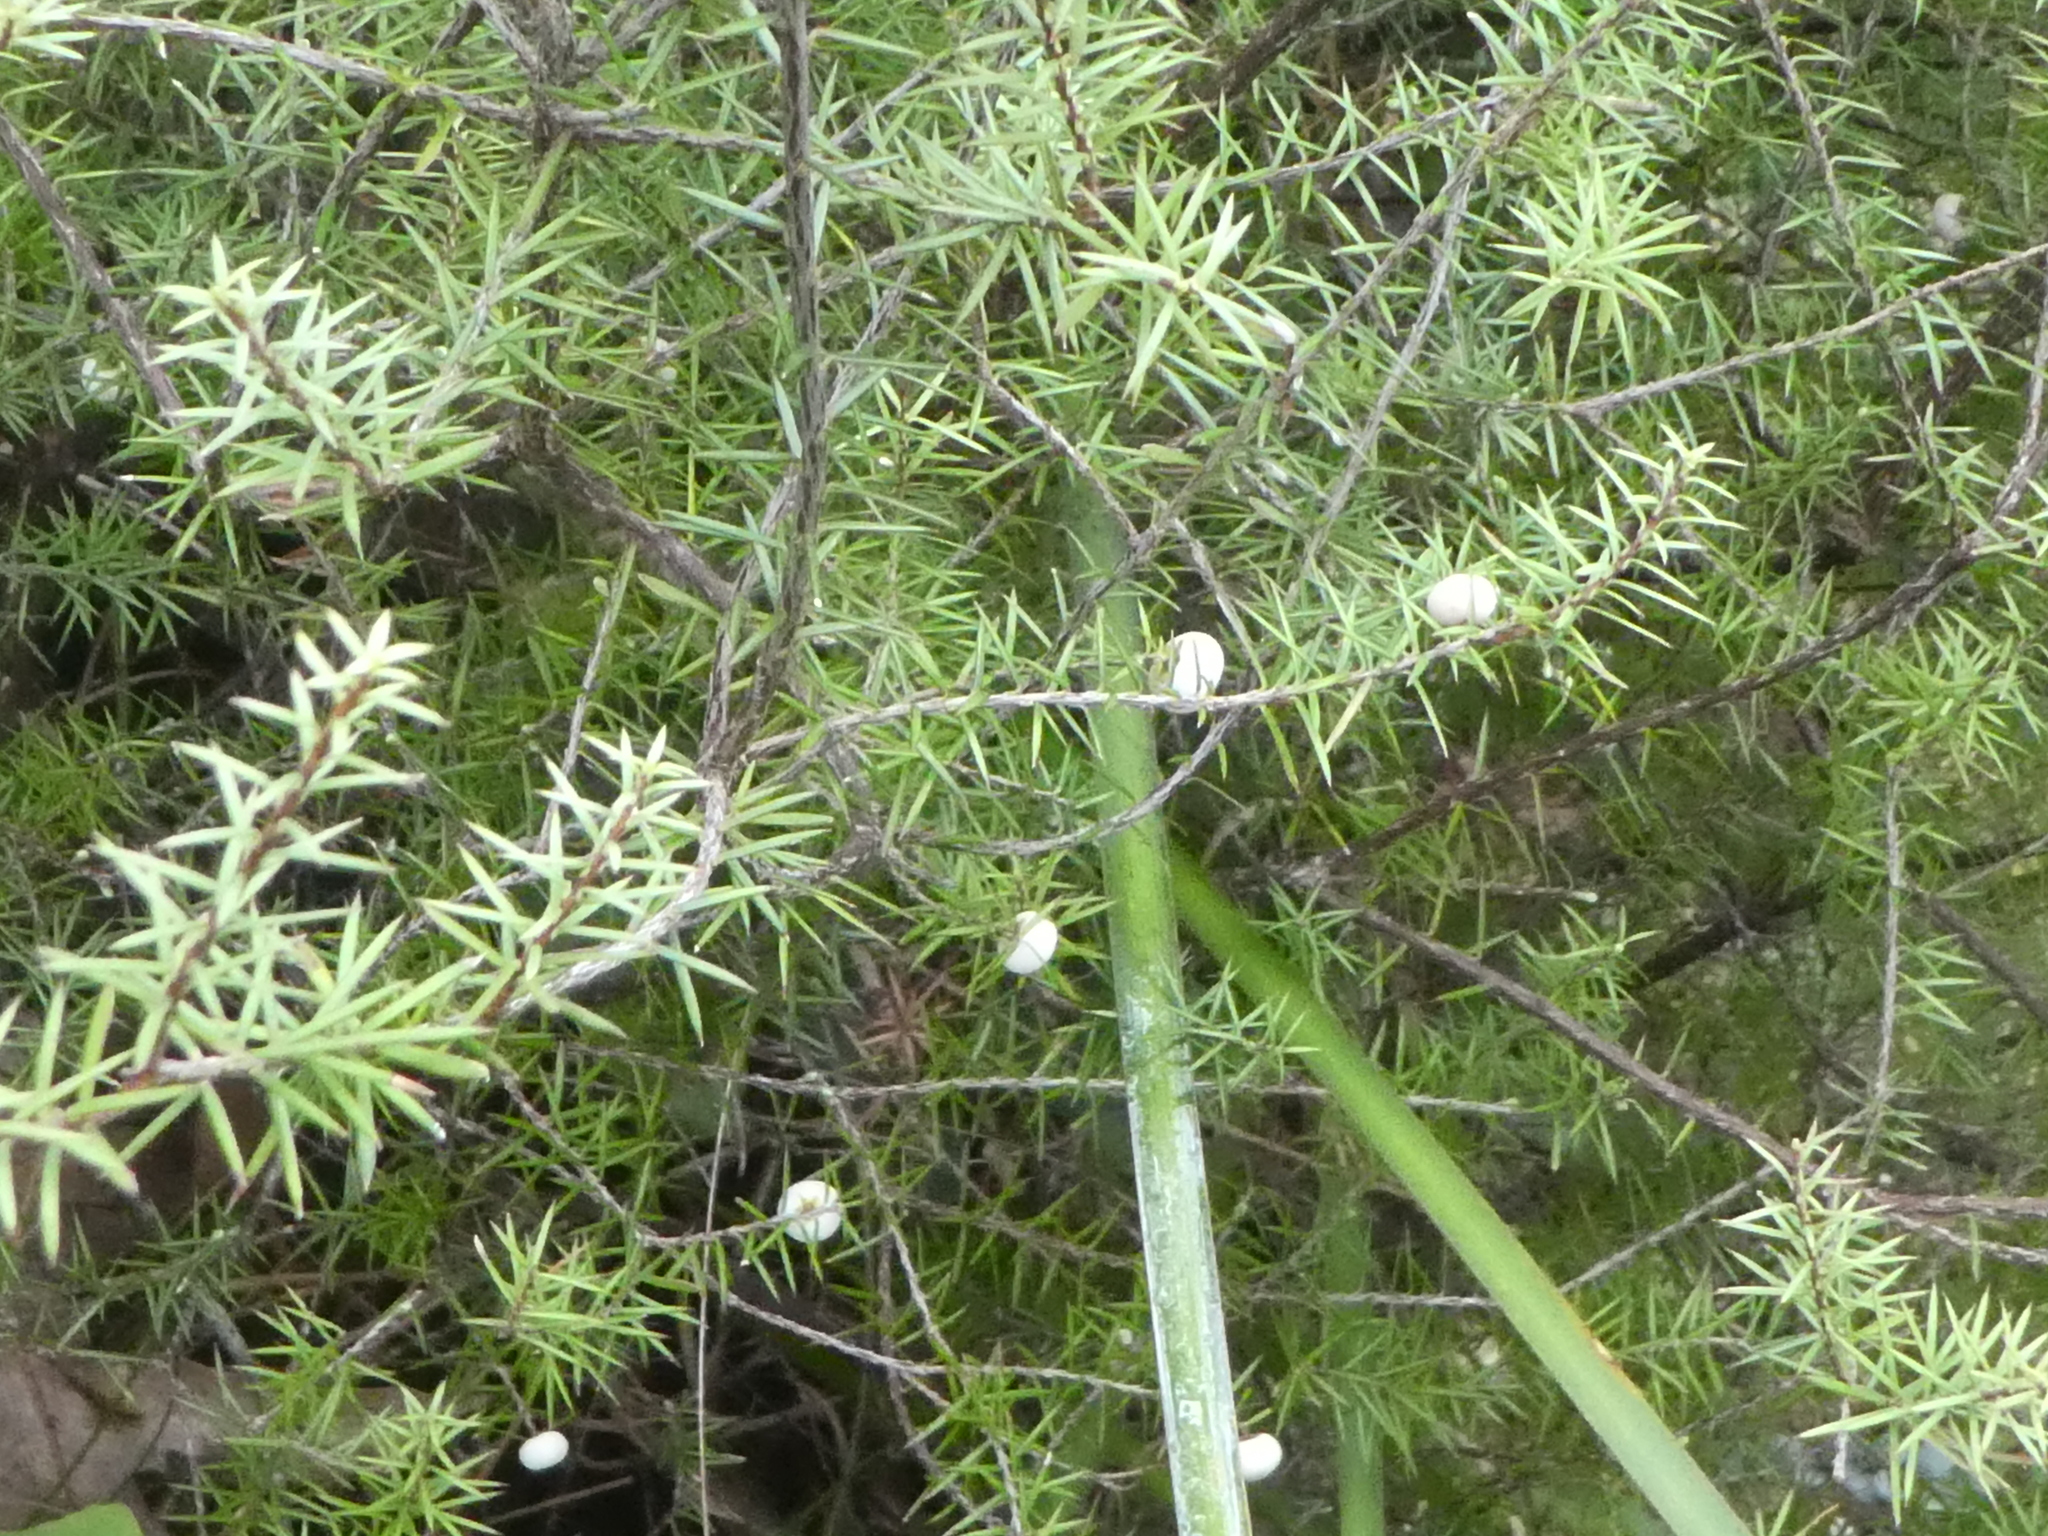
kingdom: Plantae
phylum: Tracheophyta
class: Magnoliopsida
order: Ericales
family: Ericaceae
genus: Leptecophylla
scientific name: Leptecophylla juniperina
